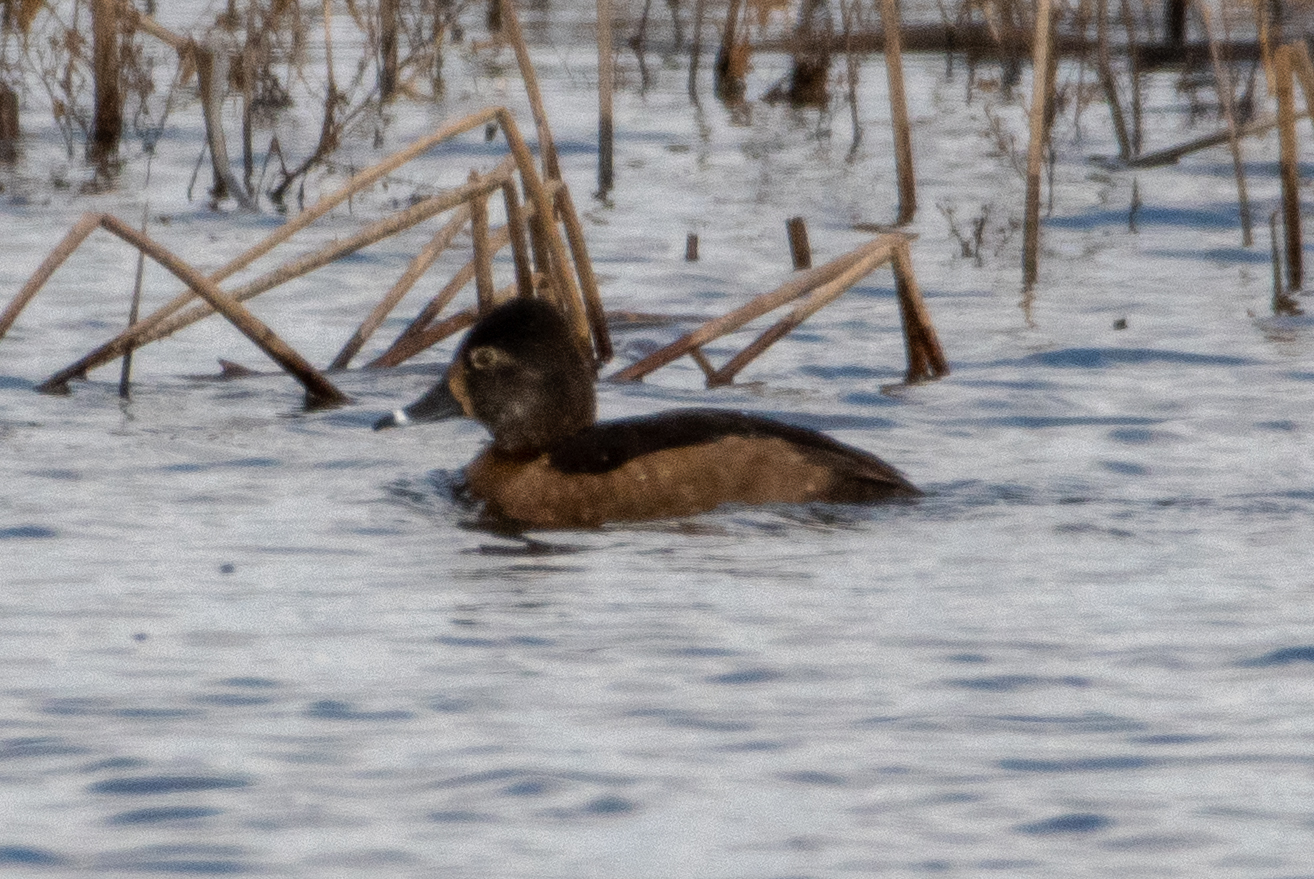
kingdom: Animalia
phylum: Chordata
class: Aves
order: Anseriformes
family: Anatidae
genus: Aythya
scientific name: Aythya collaris
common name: Ring-necked duck
